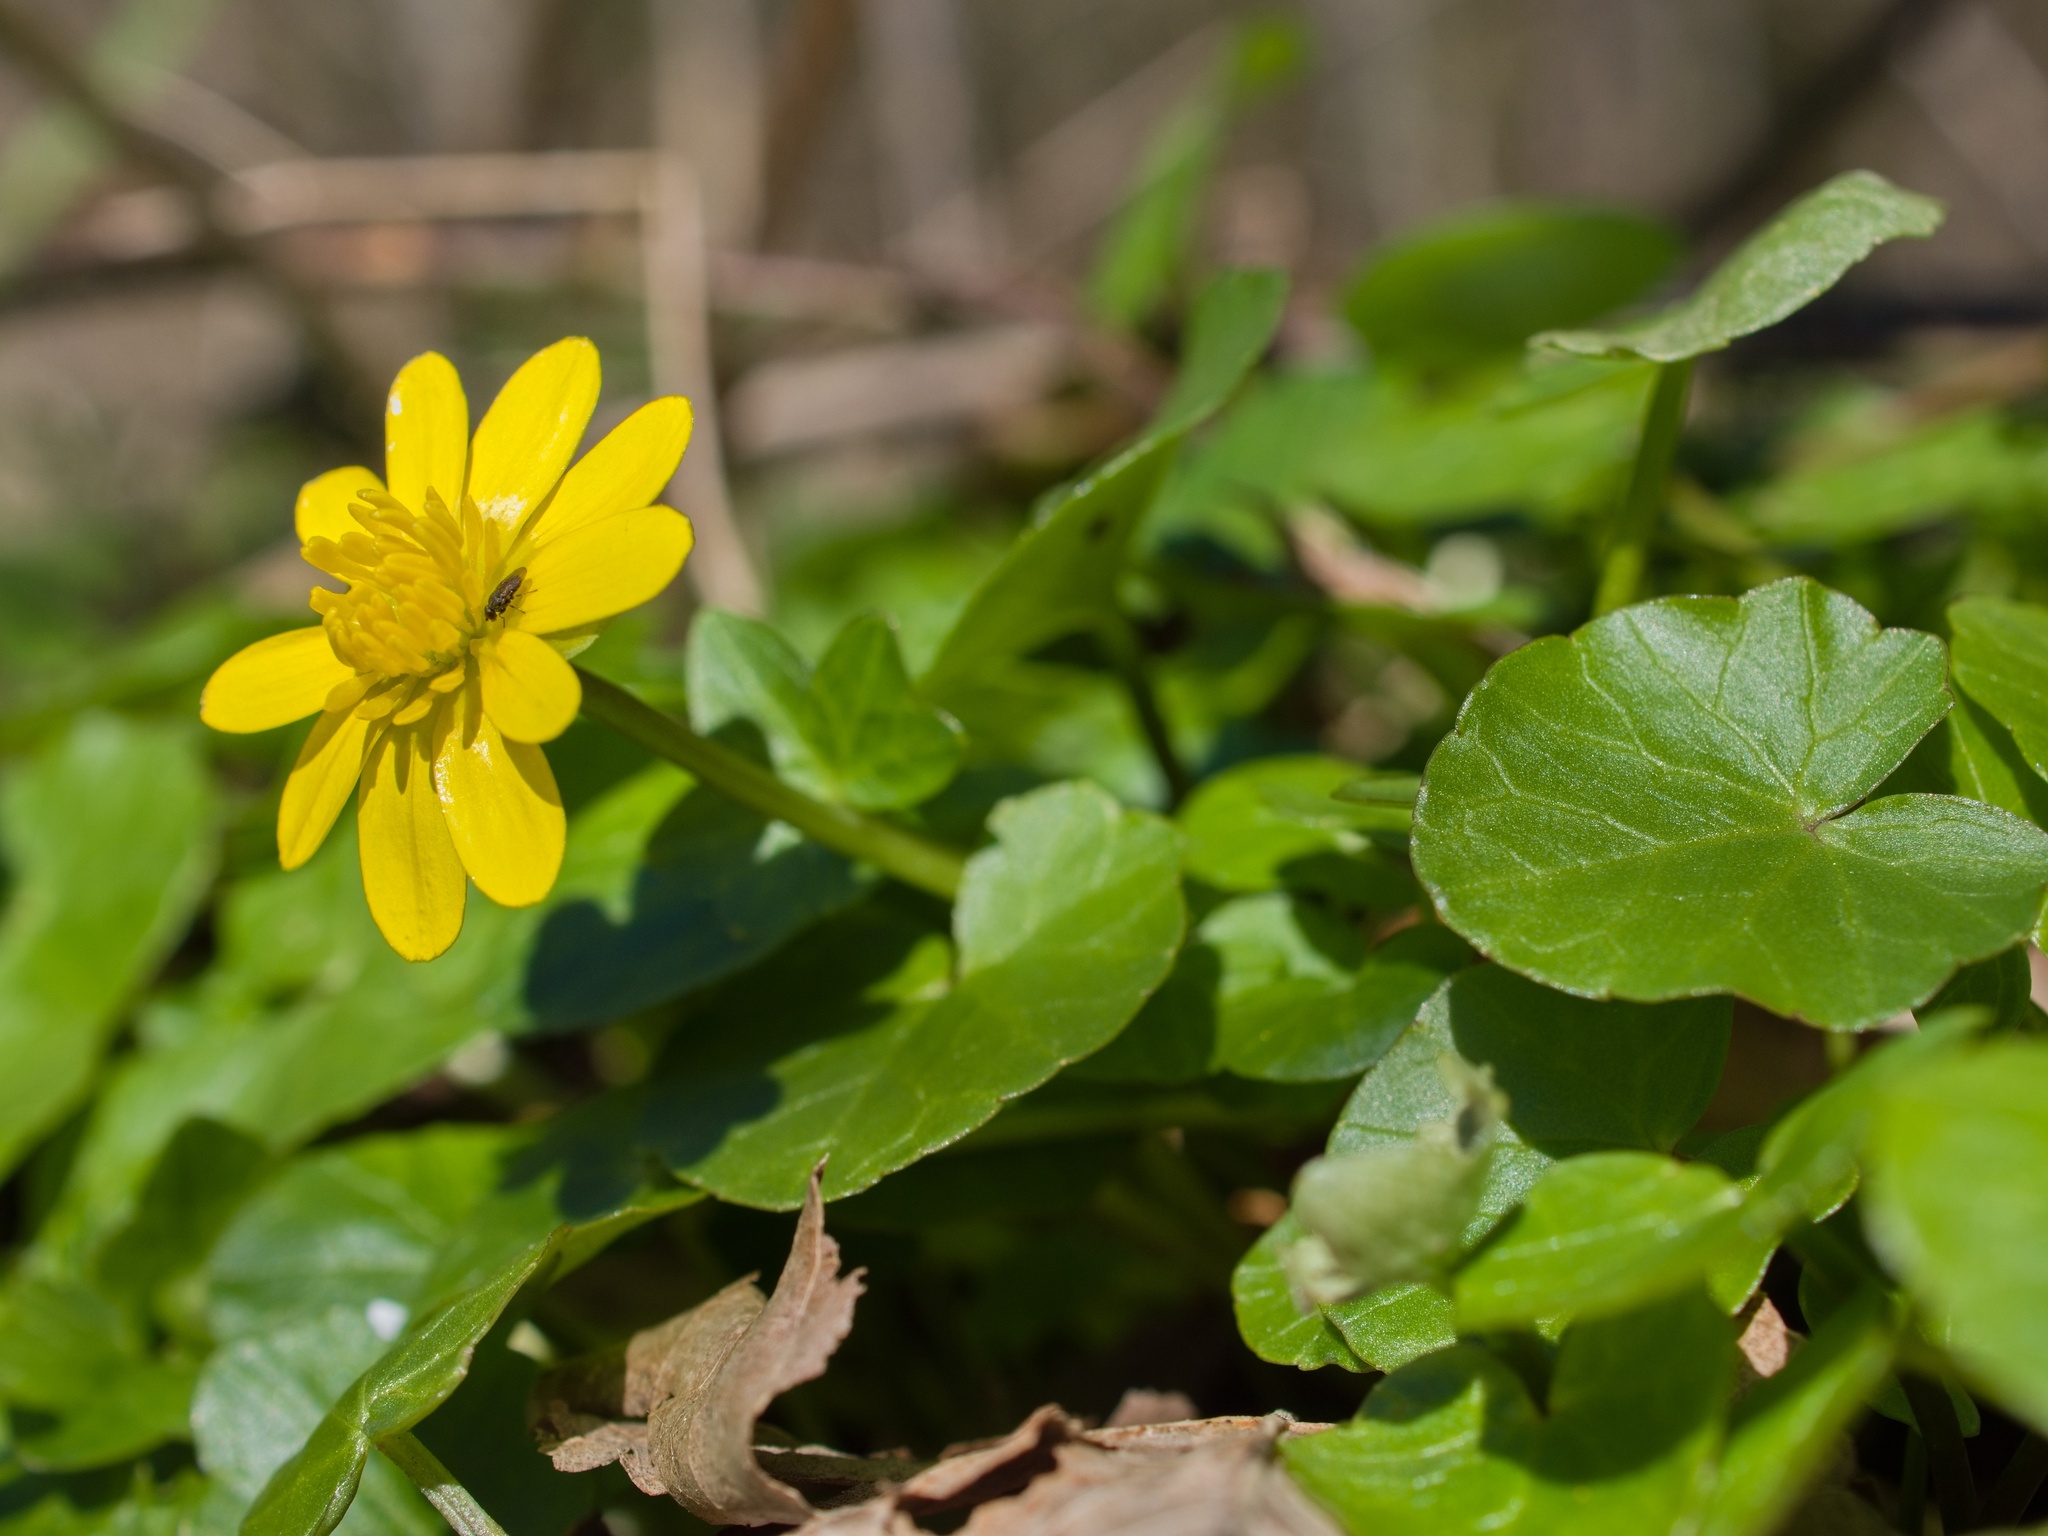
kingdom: Plantae
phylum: Tracheophyta
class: Magnoliopsida
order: Ranunculales
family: Ranunculaceae
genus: Ficaria
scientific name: Ficaria verna
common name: Lesser celandine
